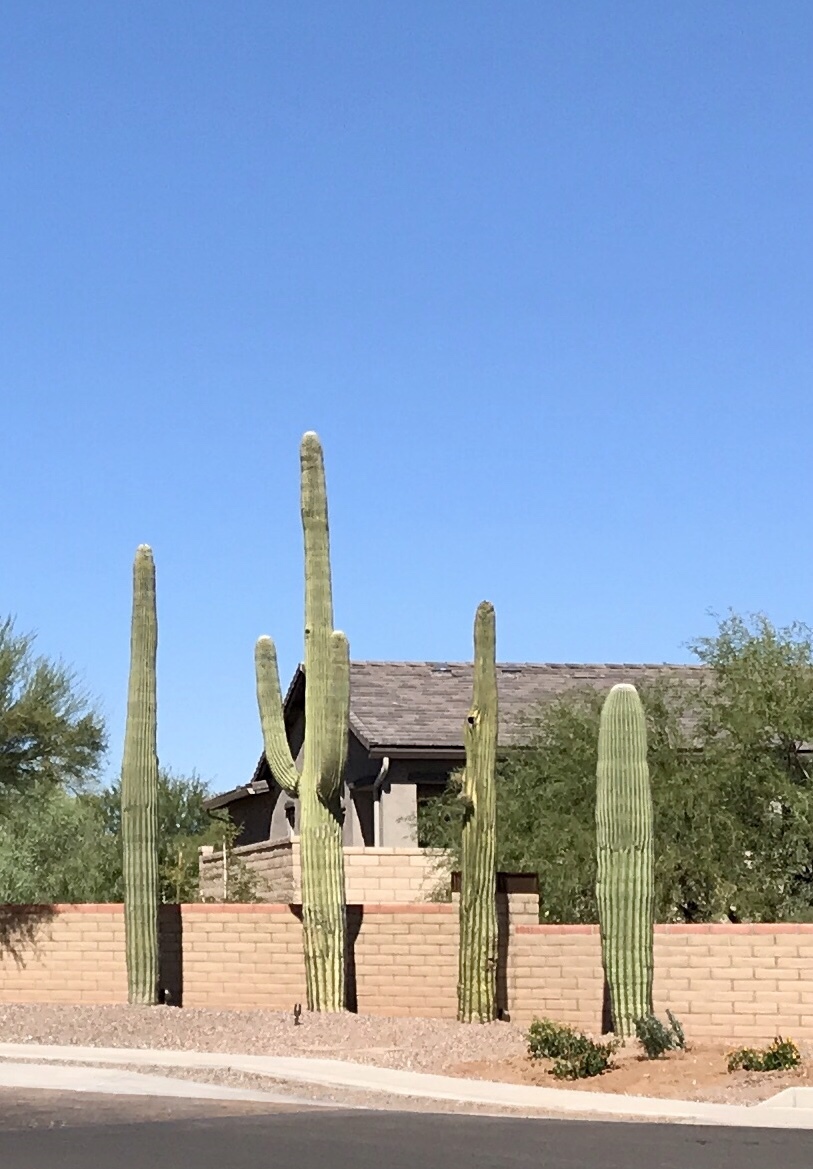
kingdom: Plantae
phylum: Tracheophyta
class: Magnoliopsida
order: Caryophyllales
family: Cactaceae
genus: Carnegiea
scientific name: Carnegiea gigantea
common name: Saguaro
